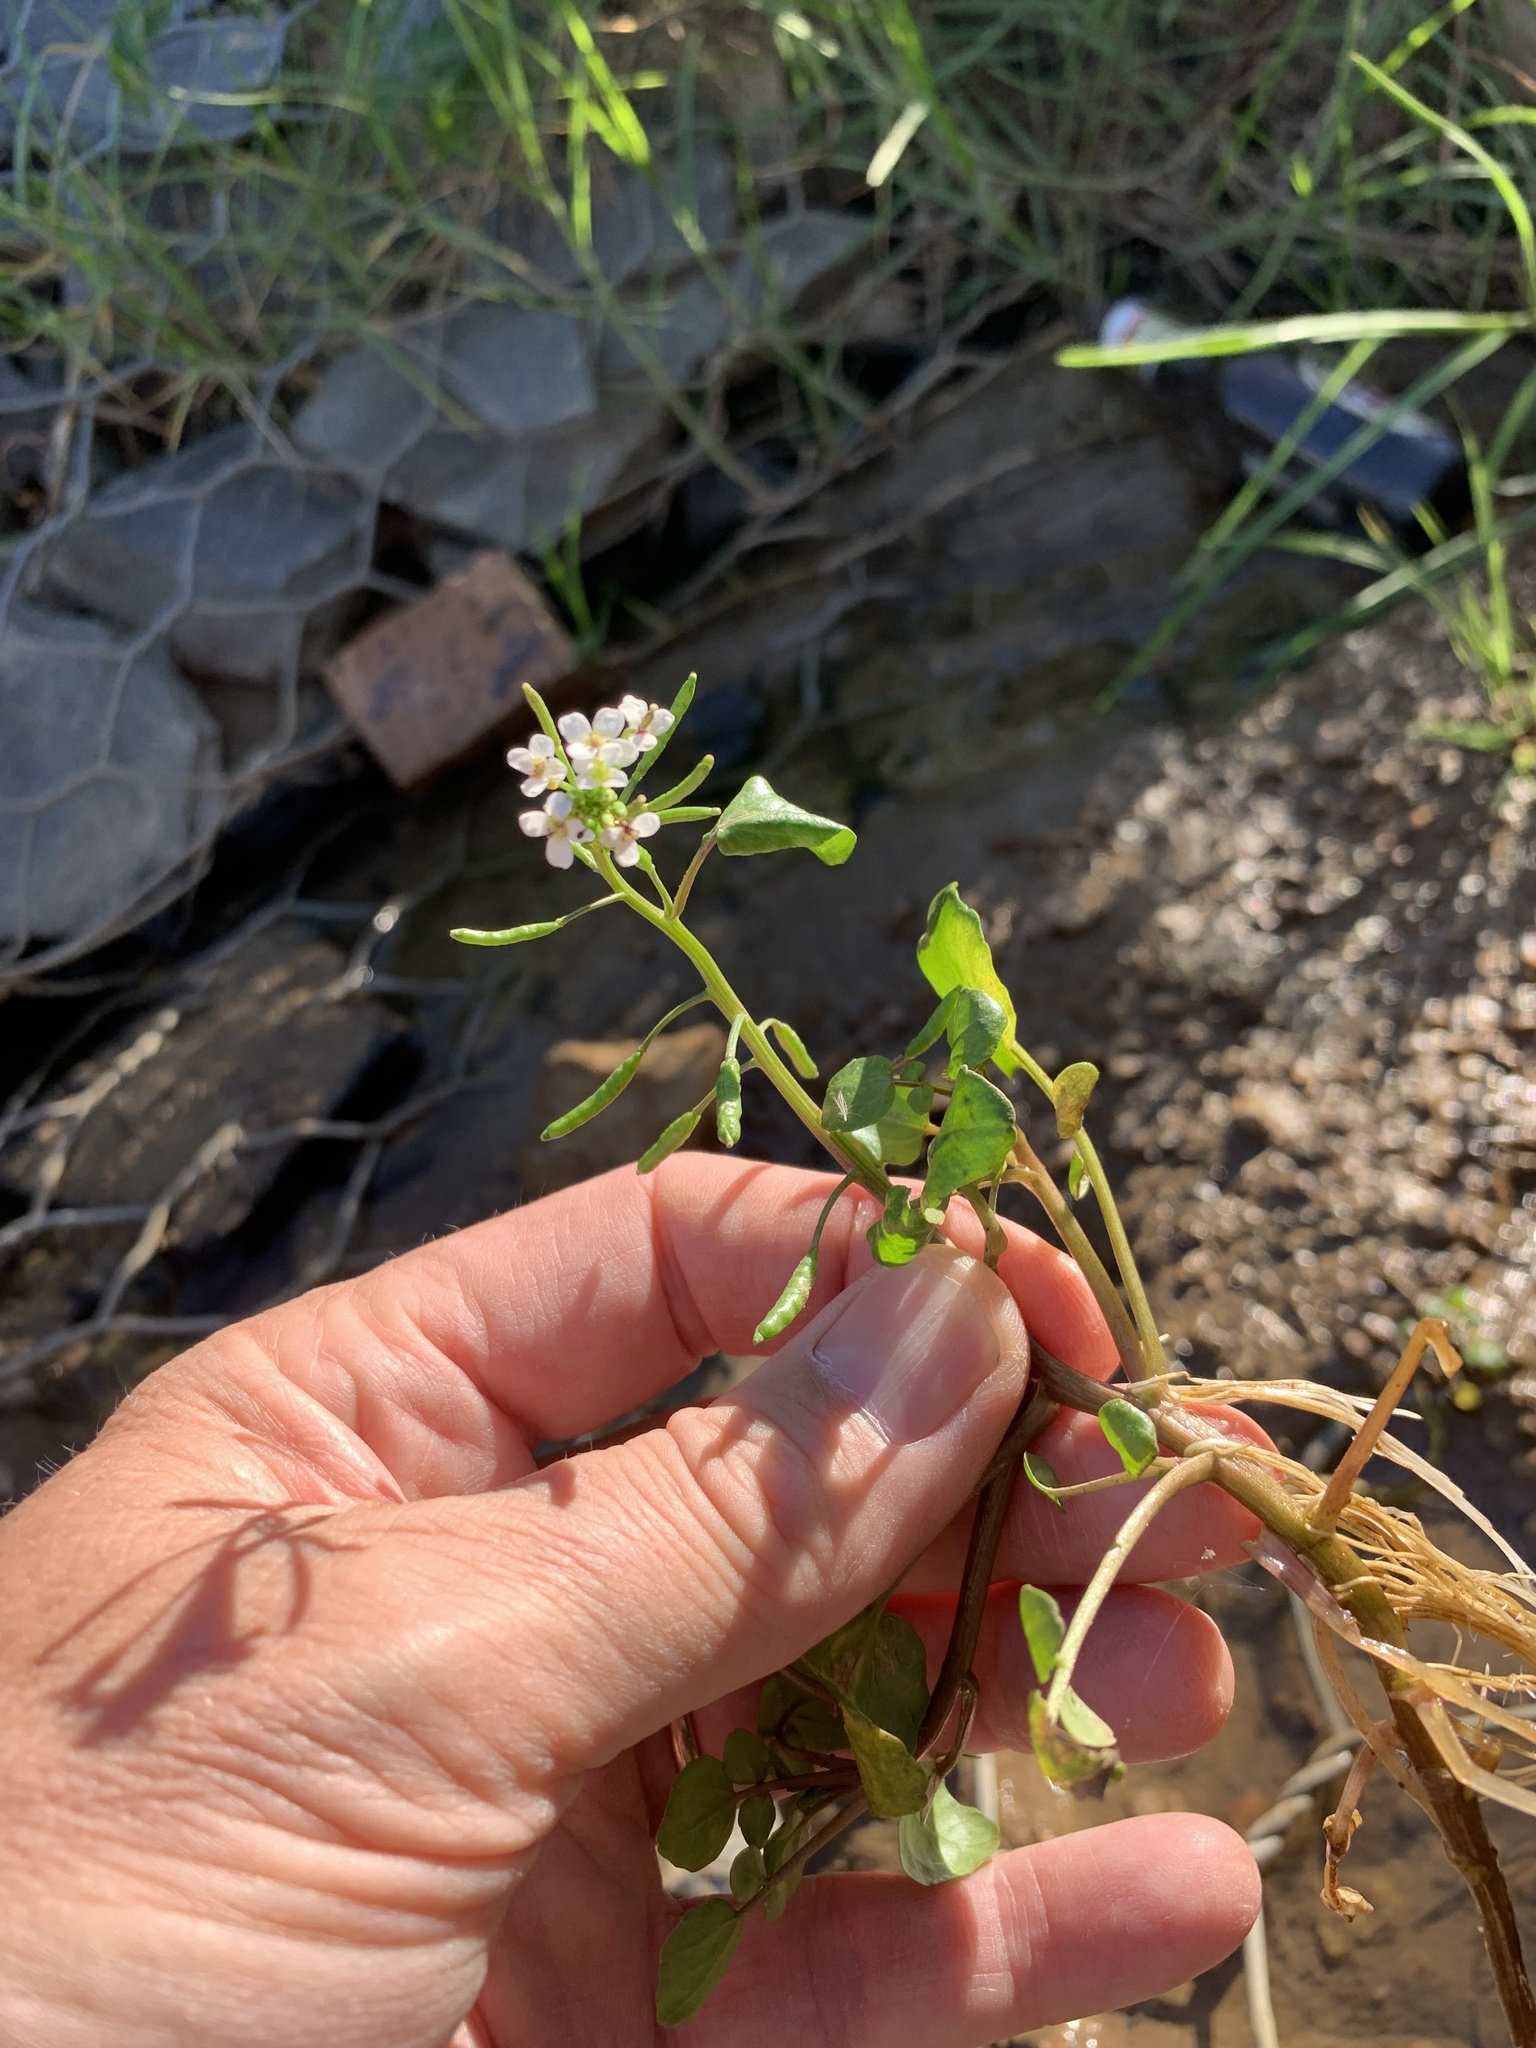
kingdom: Plantae
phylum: Tracheophyta
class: Magnoliopsida
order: Brassicales
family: Brassicaceae
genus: Nasturtium
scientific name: Nasturtium officinale
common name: Watercress
